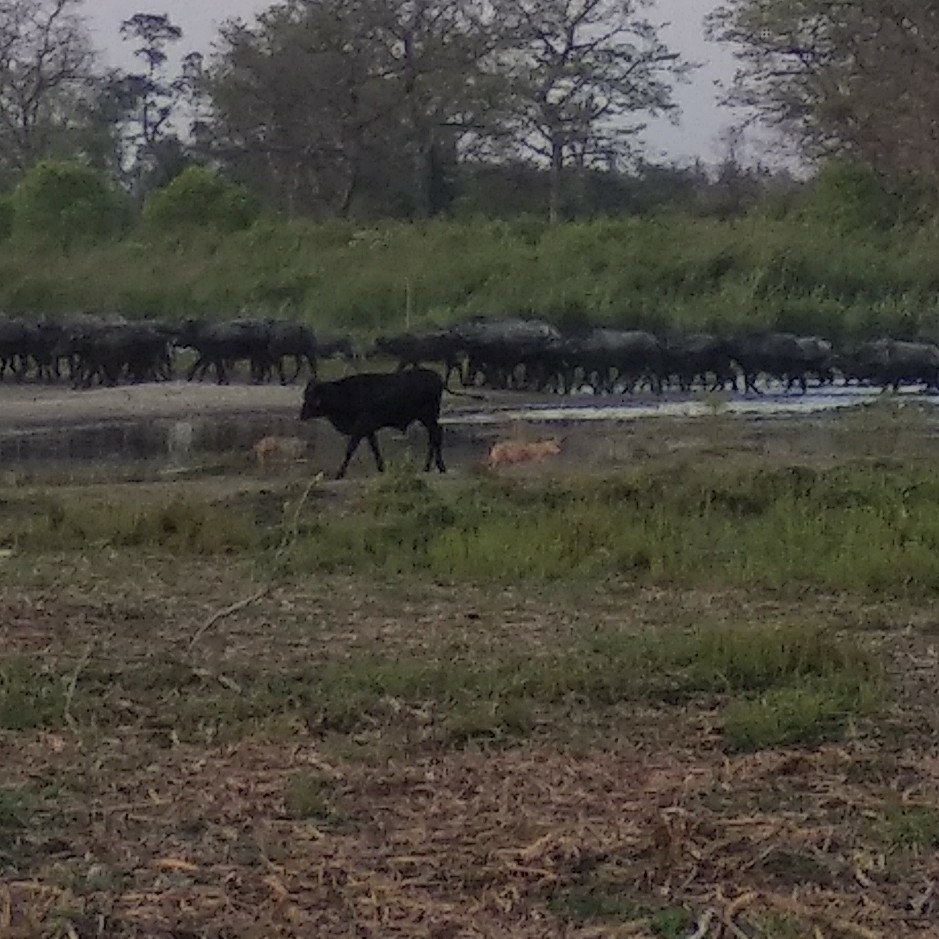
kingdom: Animalia
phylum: Chordata
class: Mammalia
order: Carnivora
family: Canidae
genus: Canis
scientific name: Canis aureus
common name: Golden jackal
